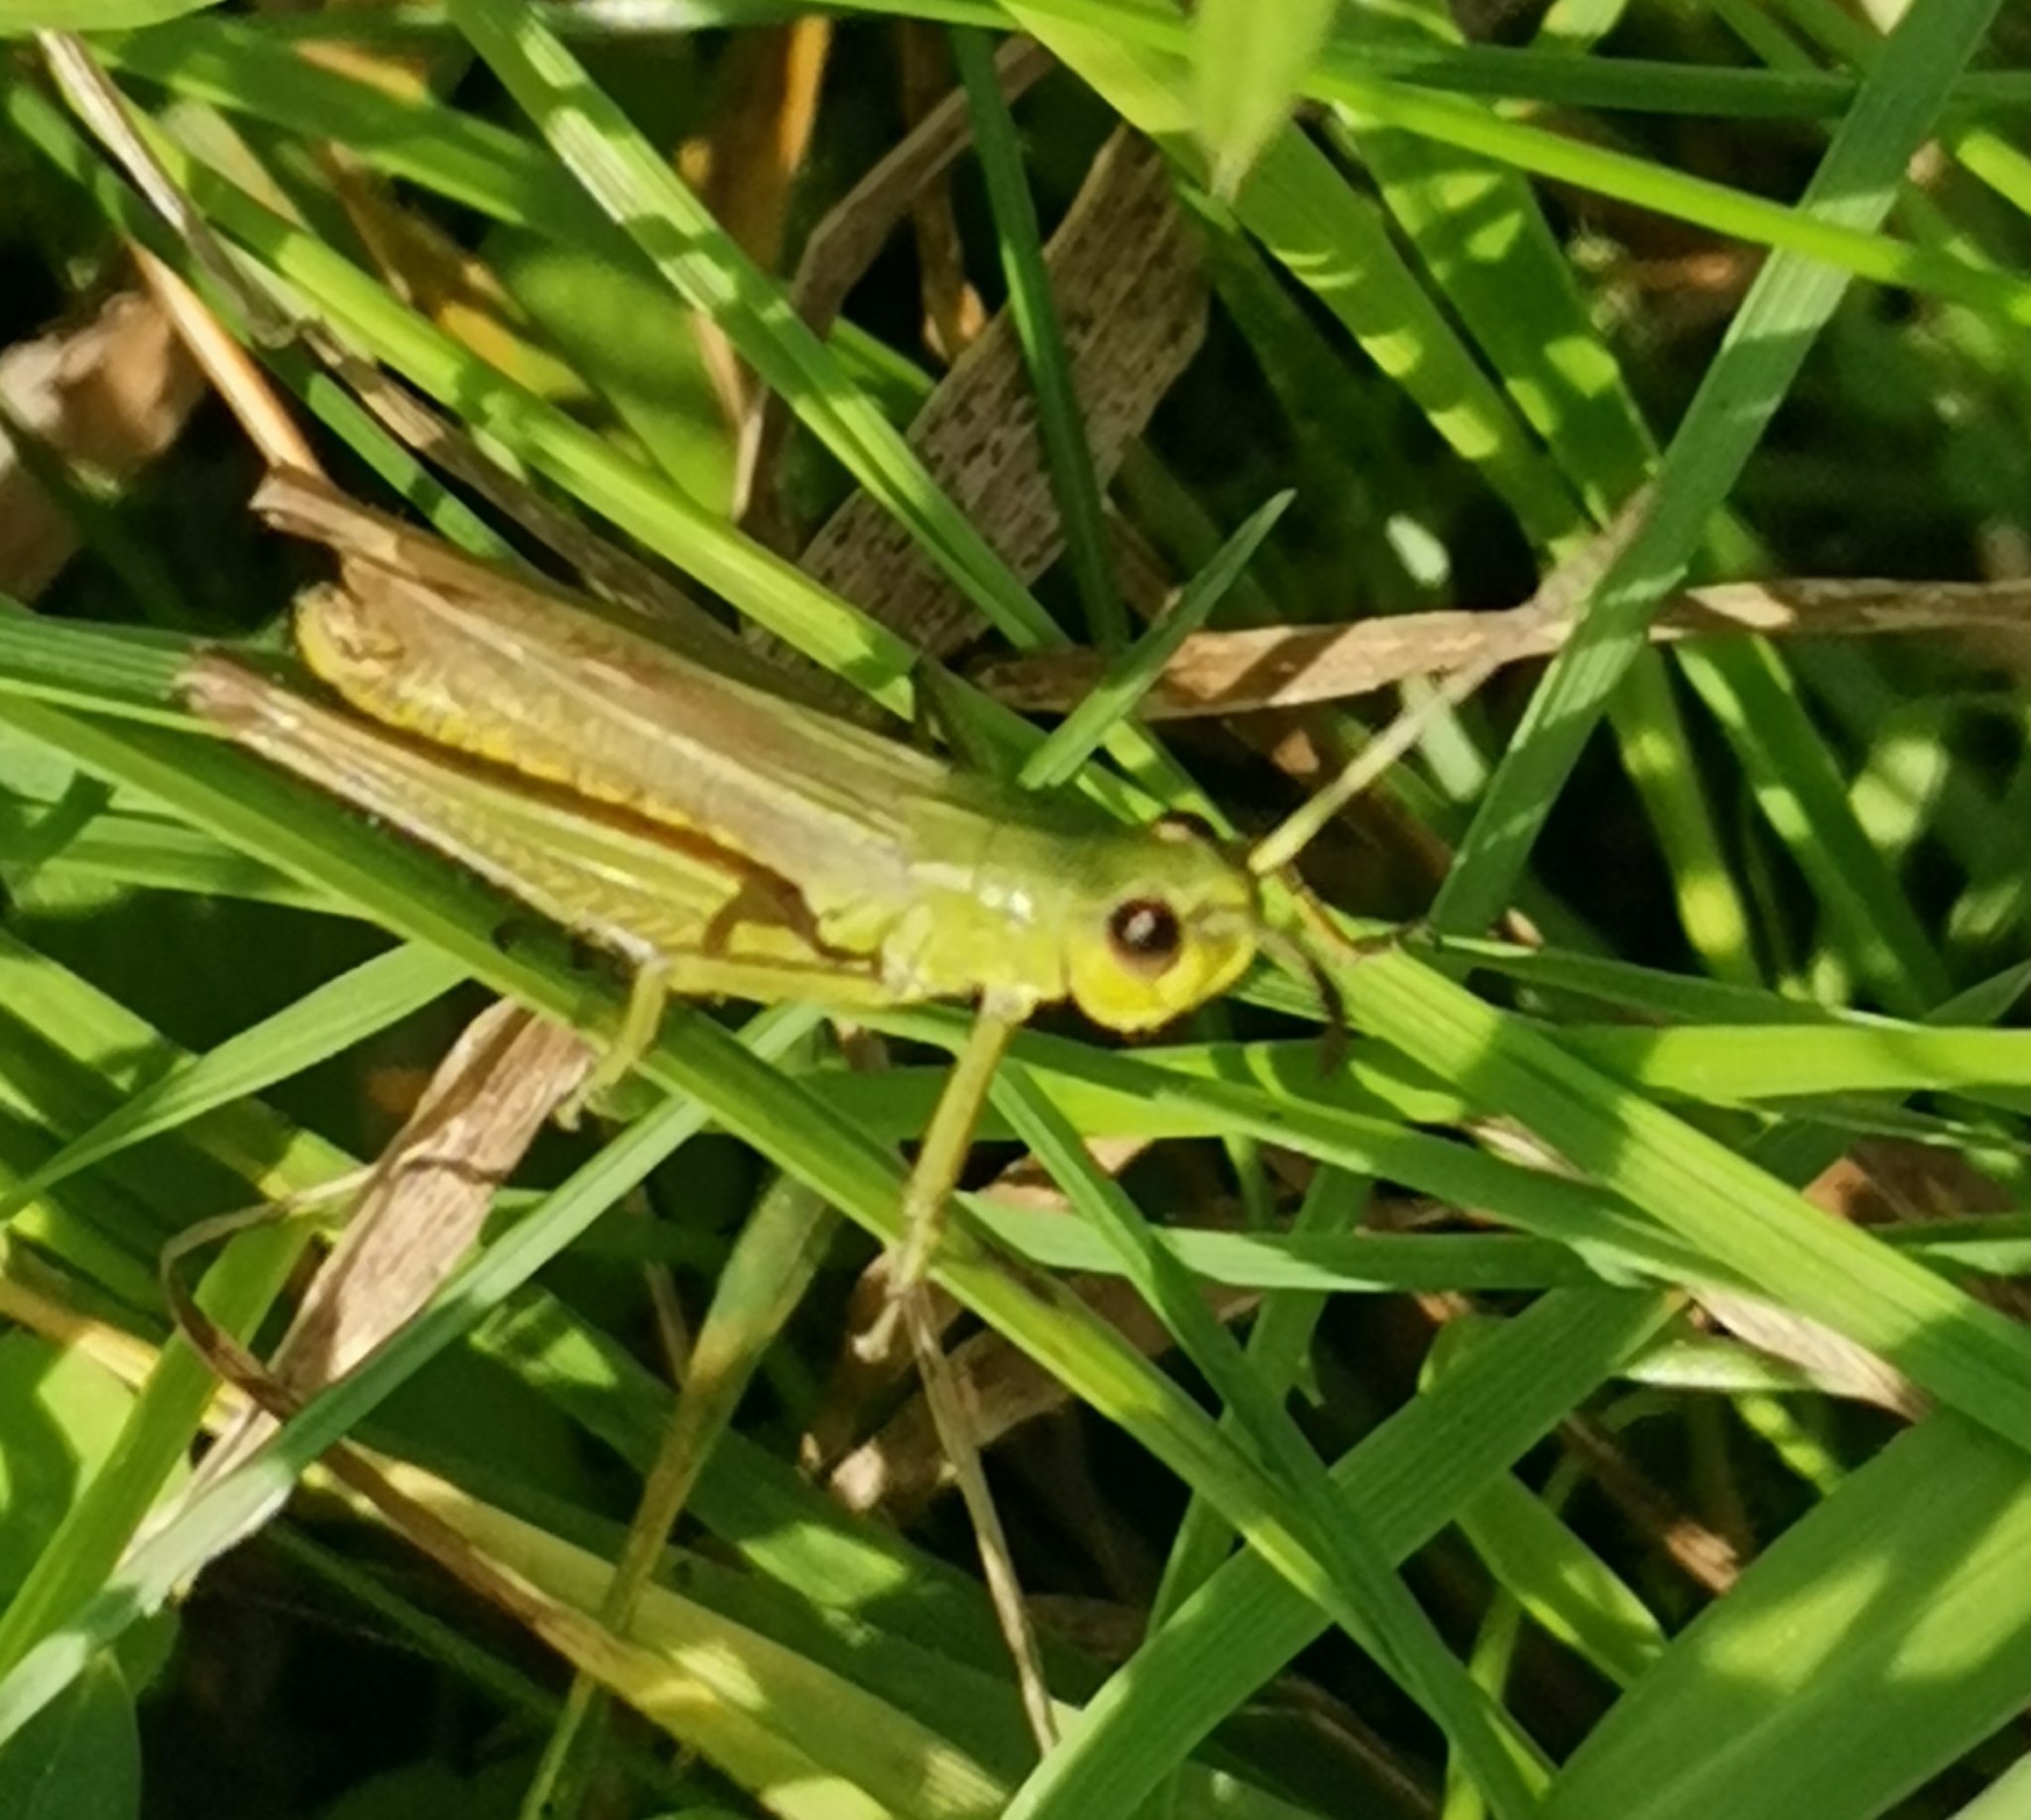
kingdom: Animalia
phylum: Arthropoda
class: Insecta
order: Orthoptera
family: Acrididae
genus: Pseudochorthippus
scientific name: Pseudochorthippus parallelus
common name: Meadow grasshopper
